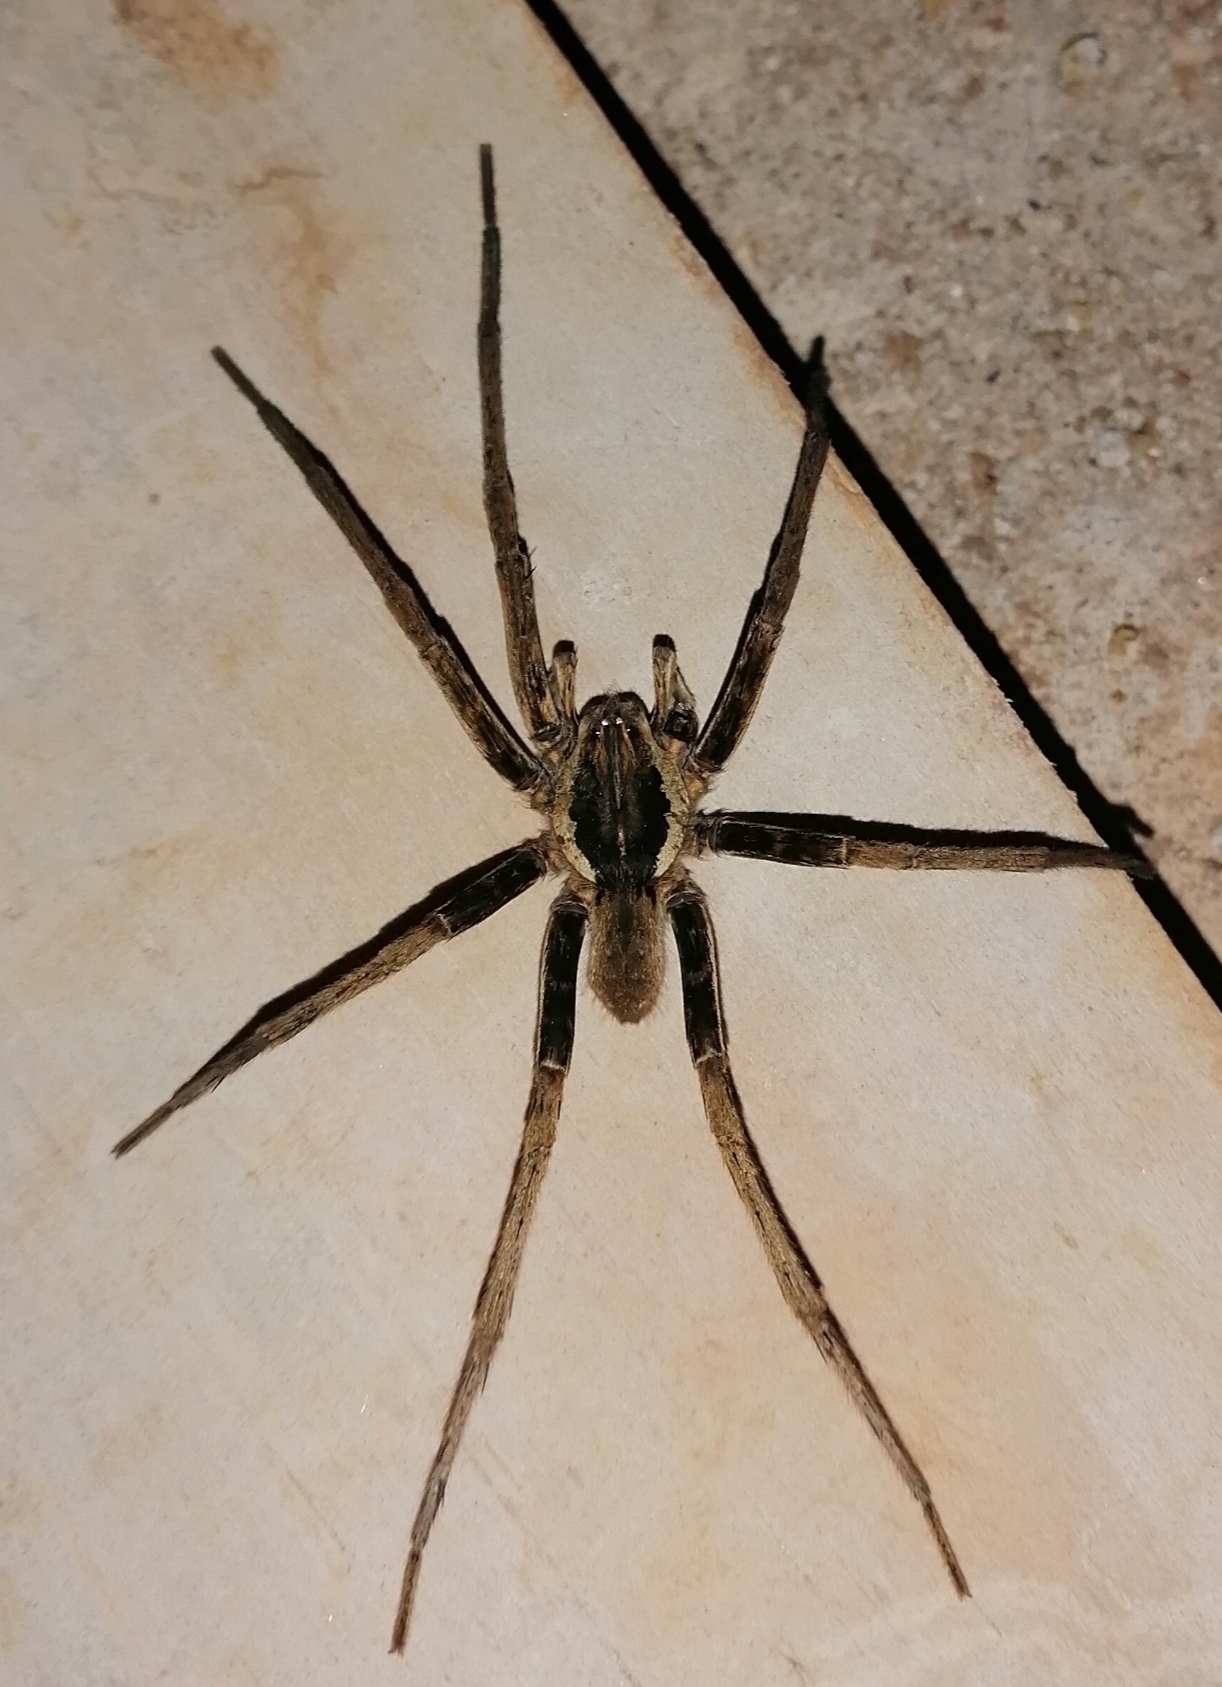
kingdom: Animalia
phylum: Arthropoda
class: Arachnida
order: Araneae
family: Ctenidae
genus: Ancylometes
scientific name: Ancylometes bogotensis
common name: Wandering spiders
